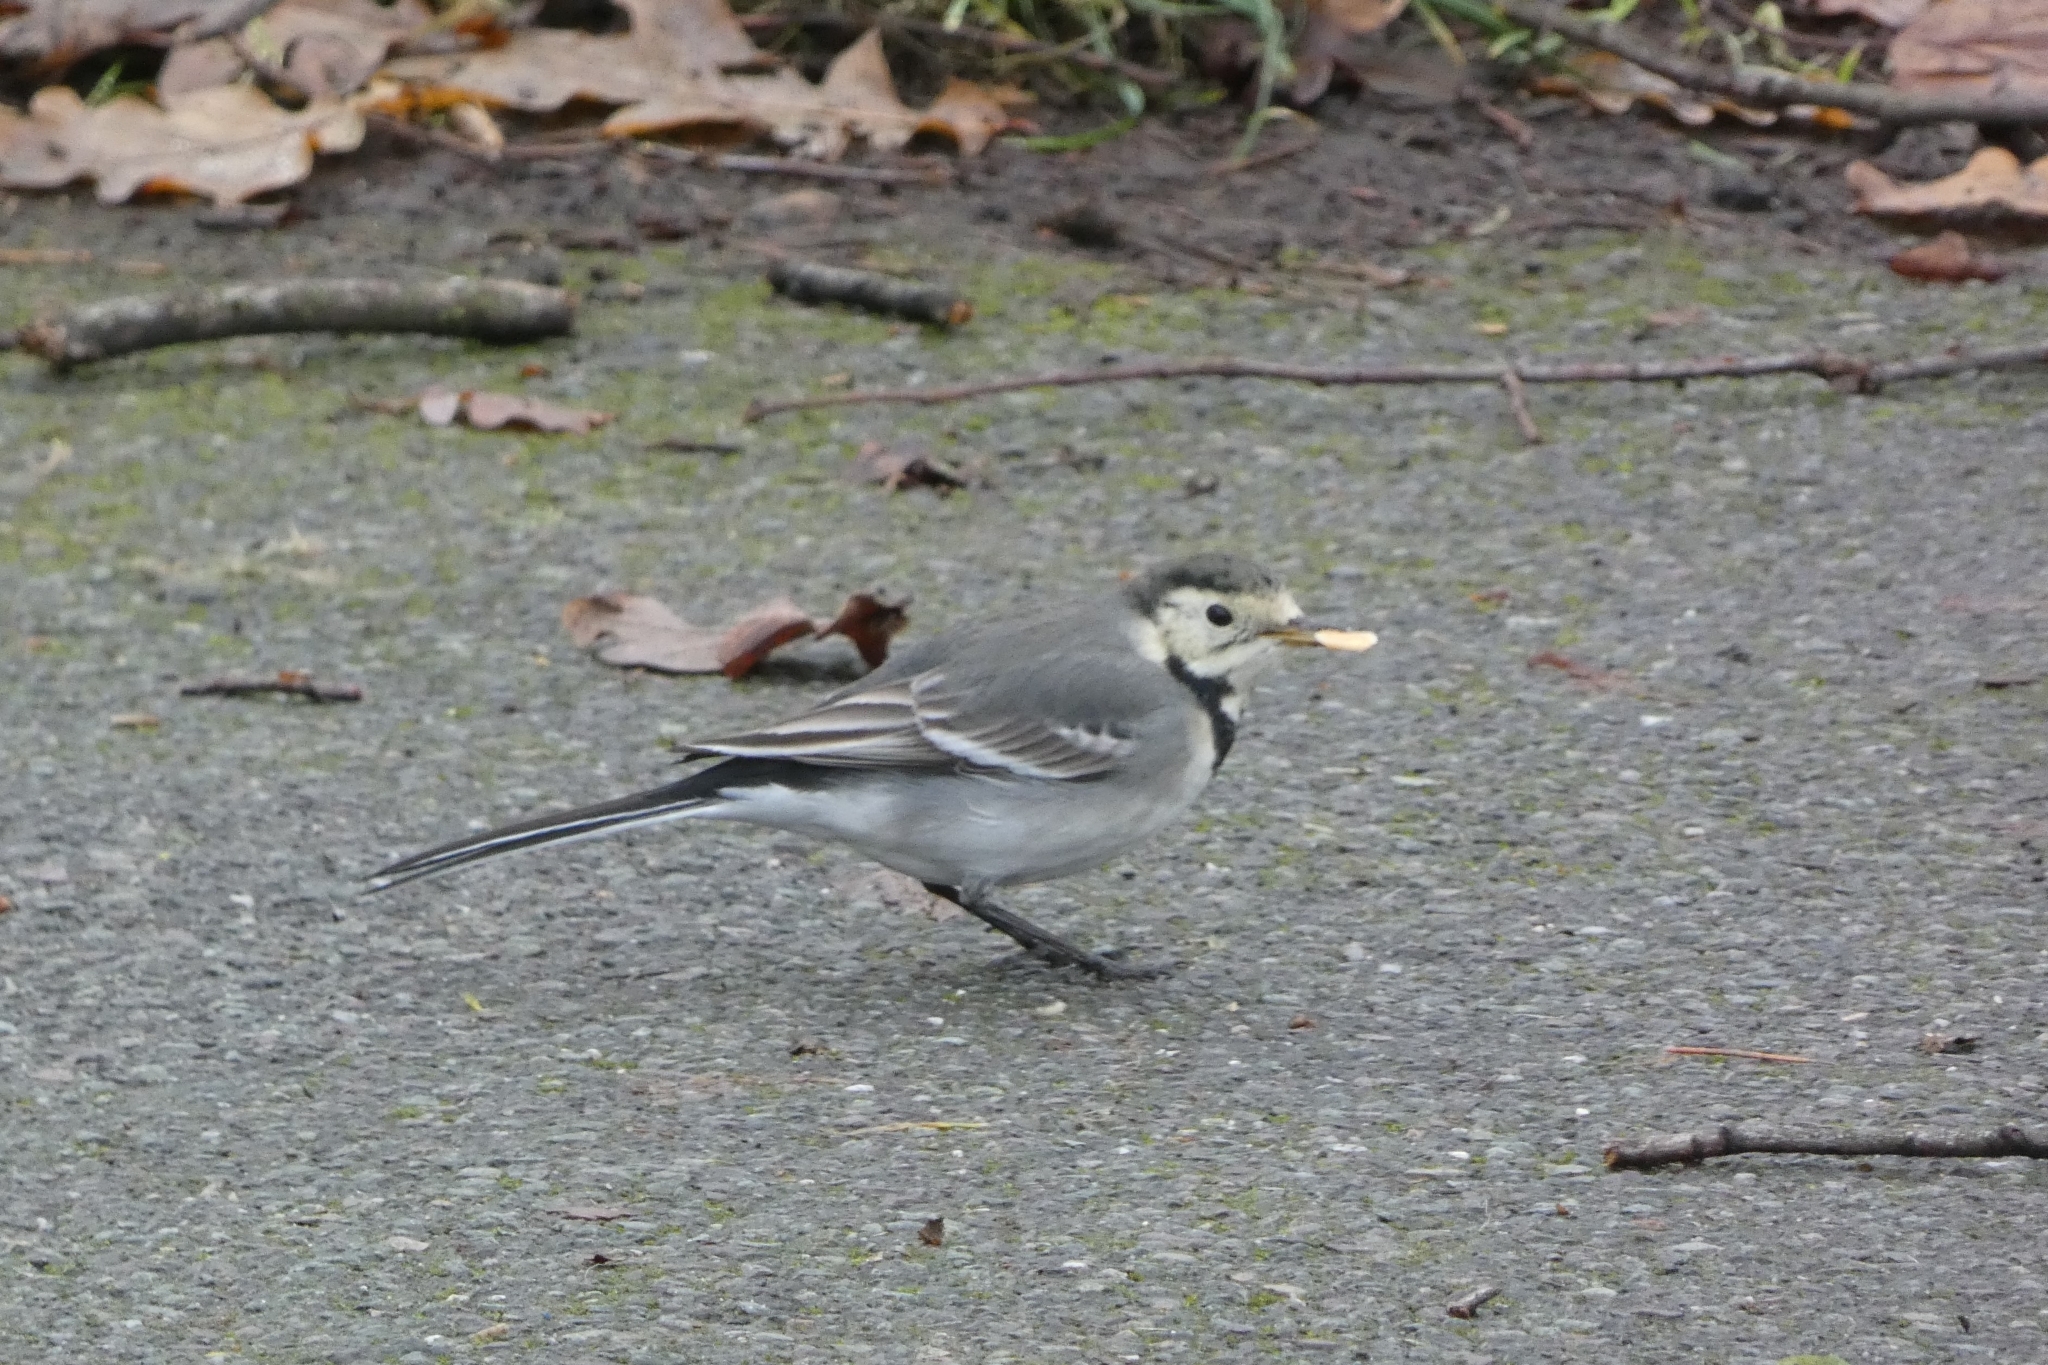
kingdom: Animalia
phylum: Chordata
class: Aves
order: Passeriformes
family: Motacillidae
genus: Motacilla
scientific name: Motacilla alba
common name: White wagtail
